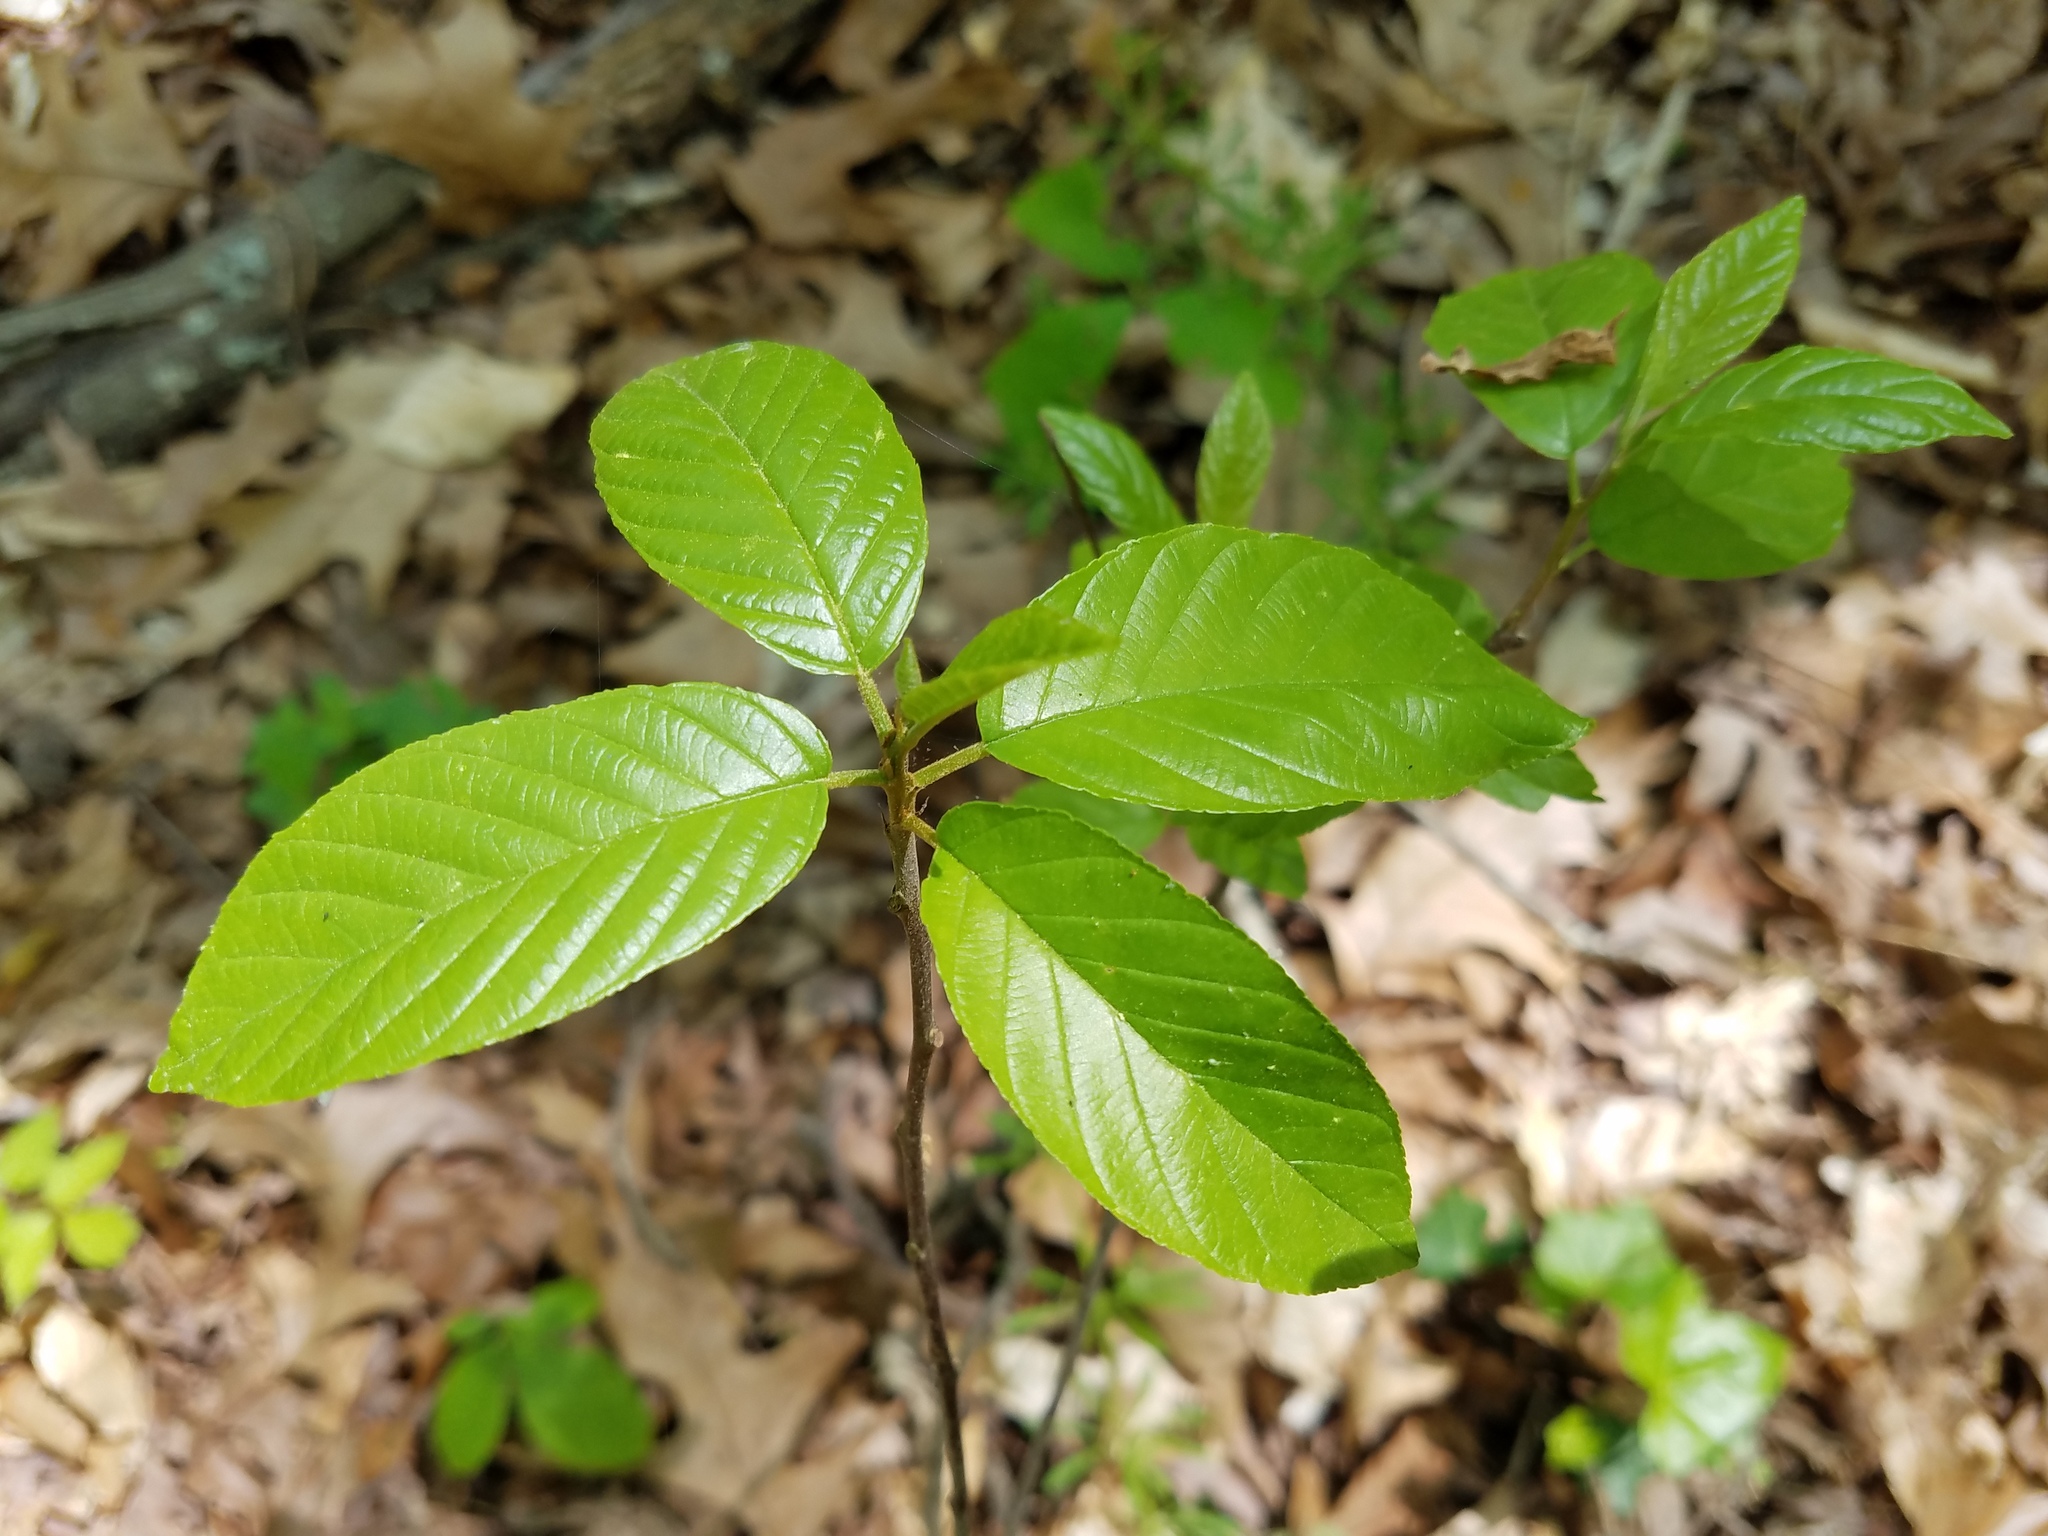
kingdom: Plantae
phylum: Tracheophyta
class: Magnoliopsida
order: Rosales
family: Rhamnaceae
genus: Frangula
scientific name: Frangula caroliniana
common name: Carolina buckthorn
